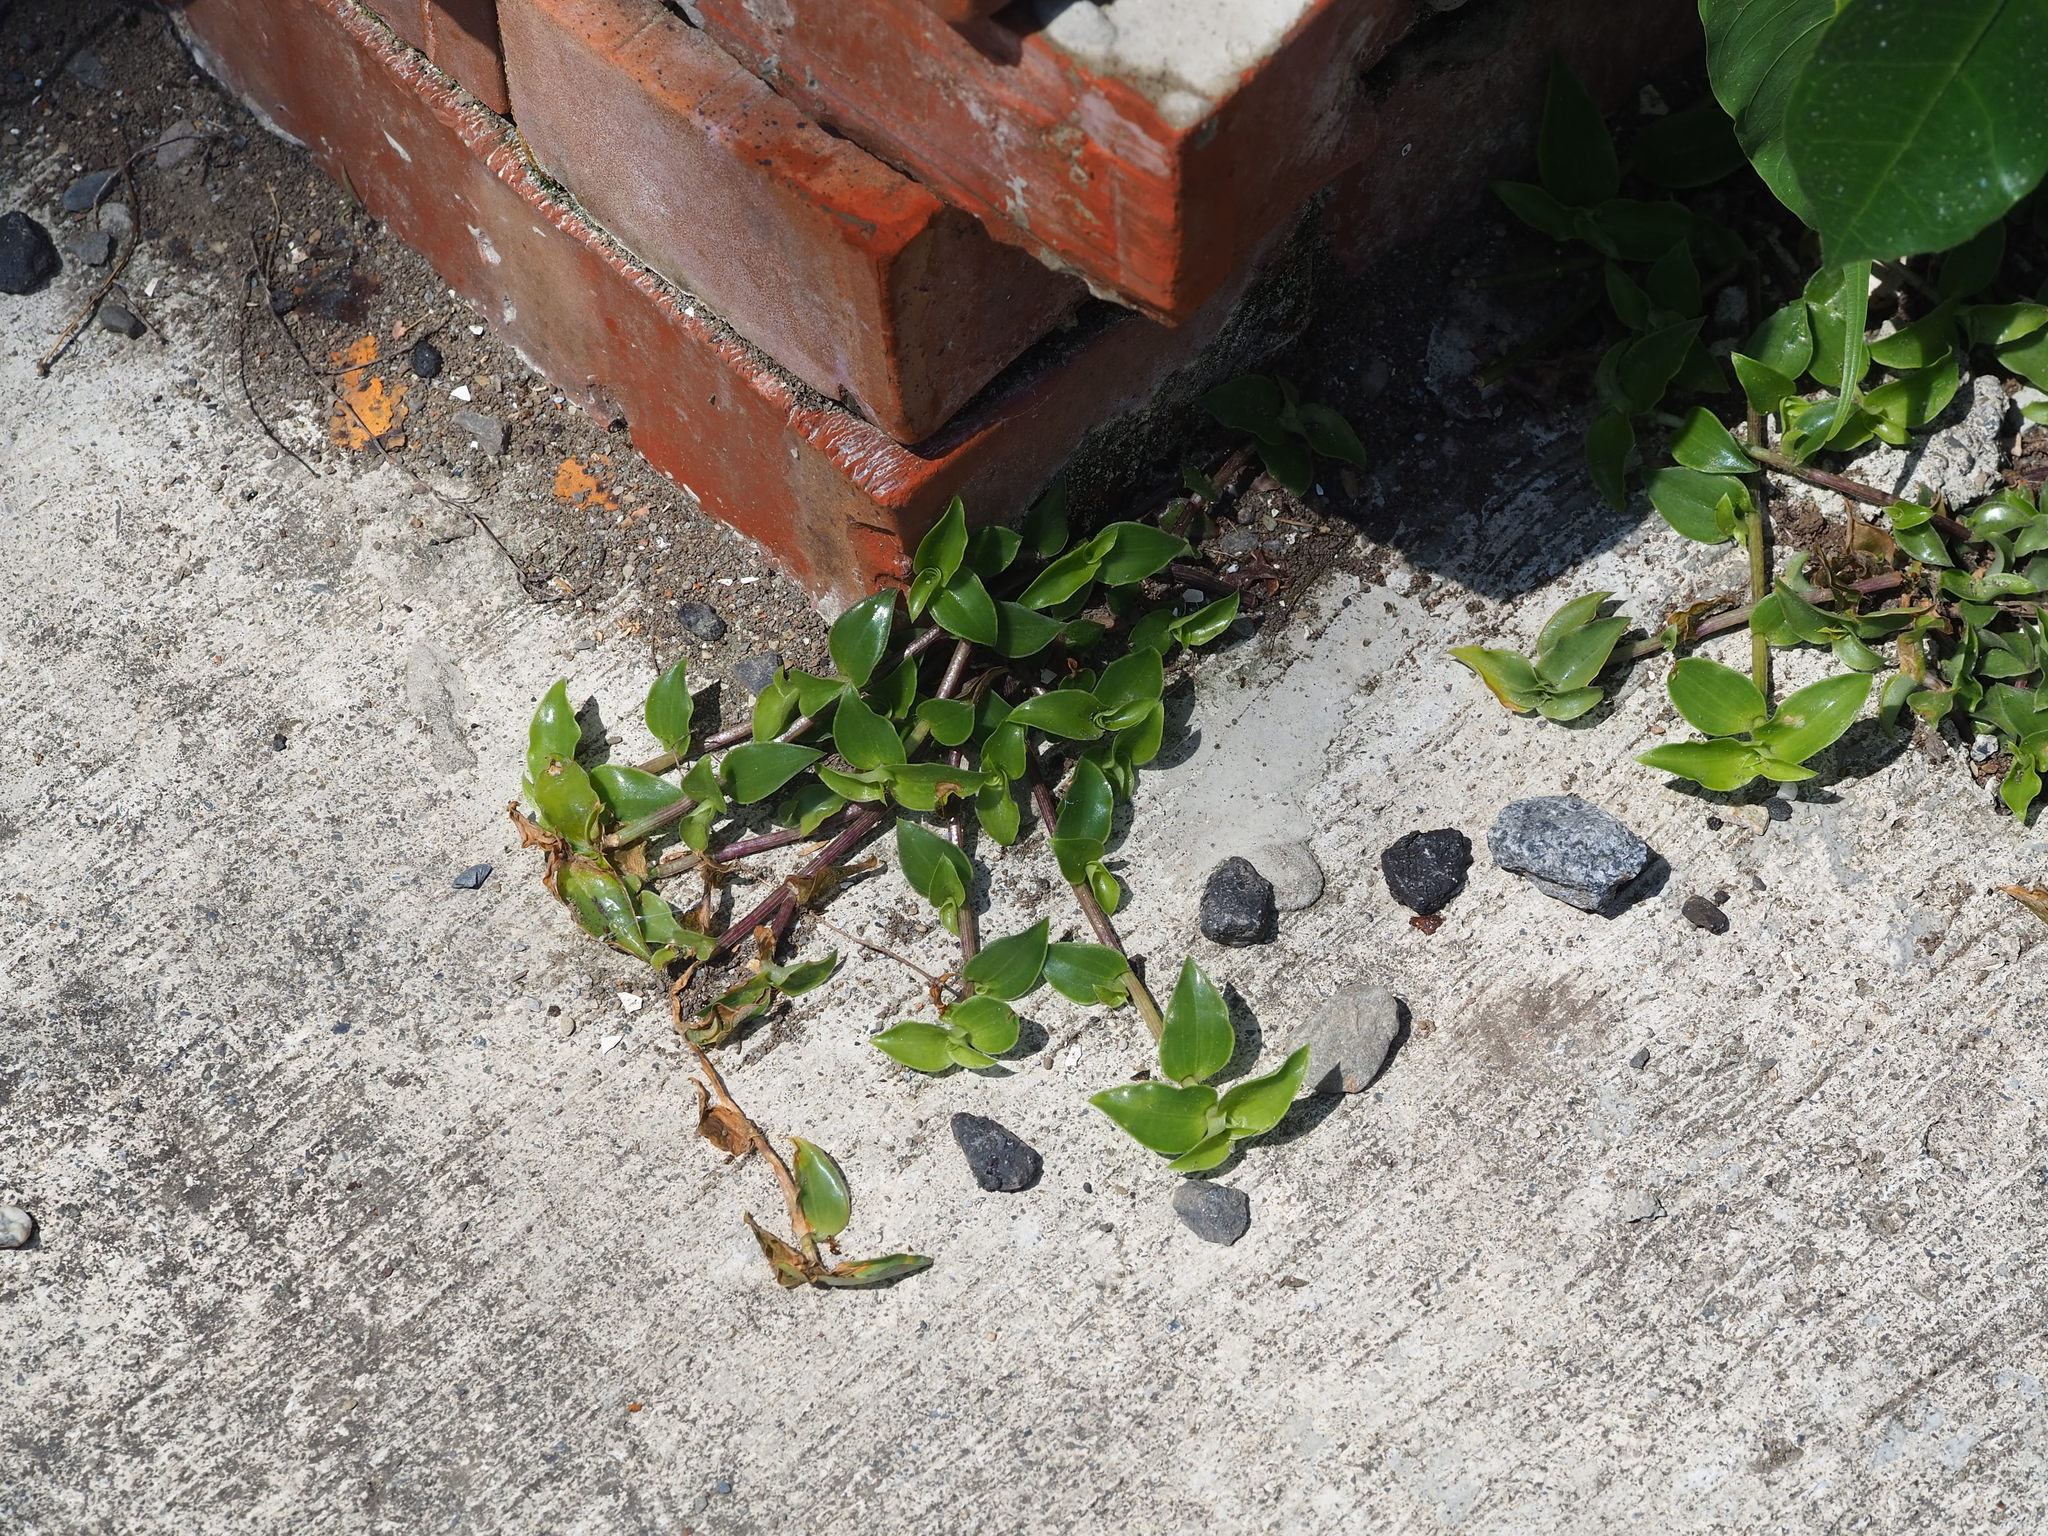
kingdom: Plantae
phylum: Tracheophyta
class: Liliopsida
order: Commelinales
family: Commelinaceae
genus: Callisia
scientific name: Callisia repens
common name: Creeping inchplant
